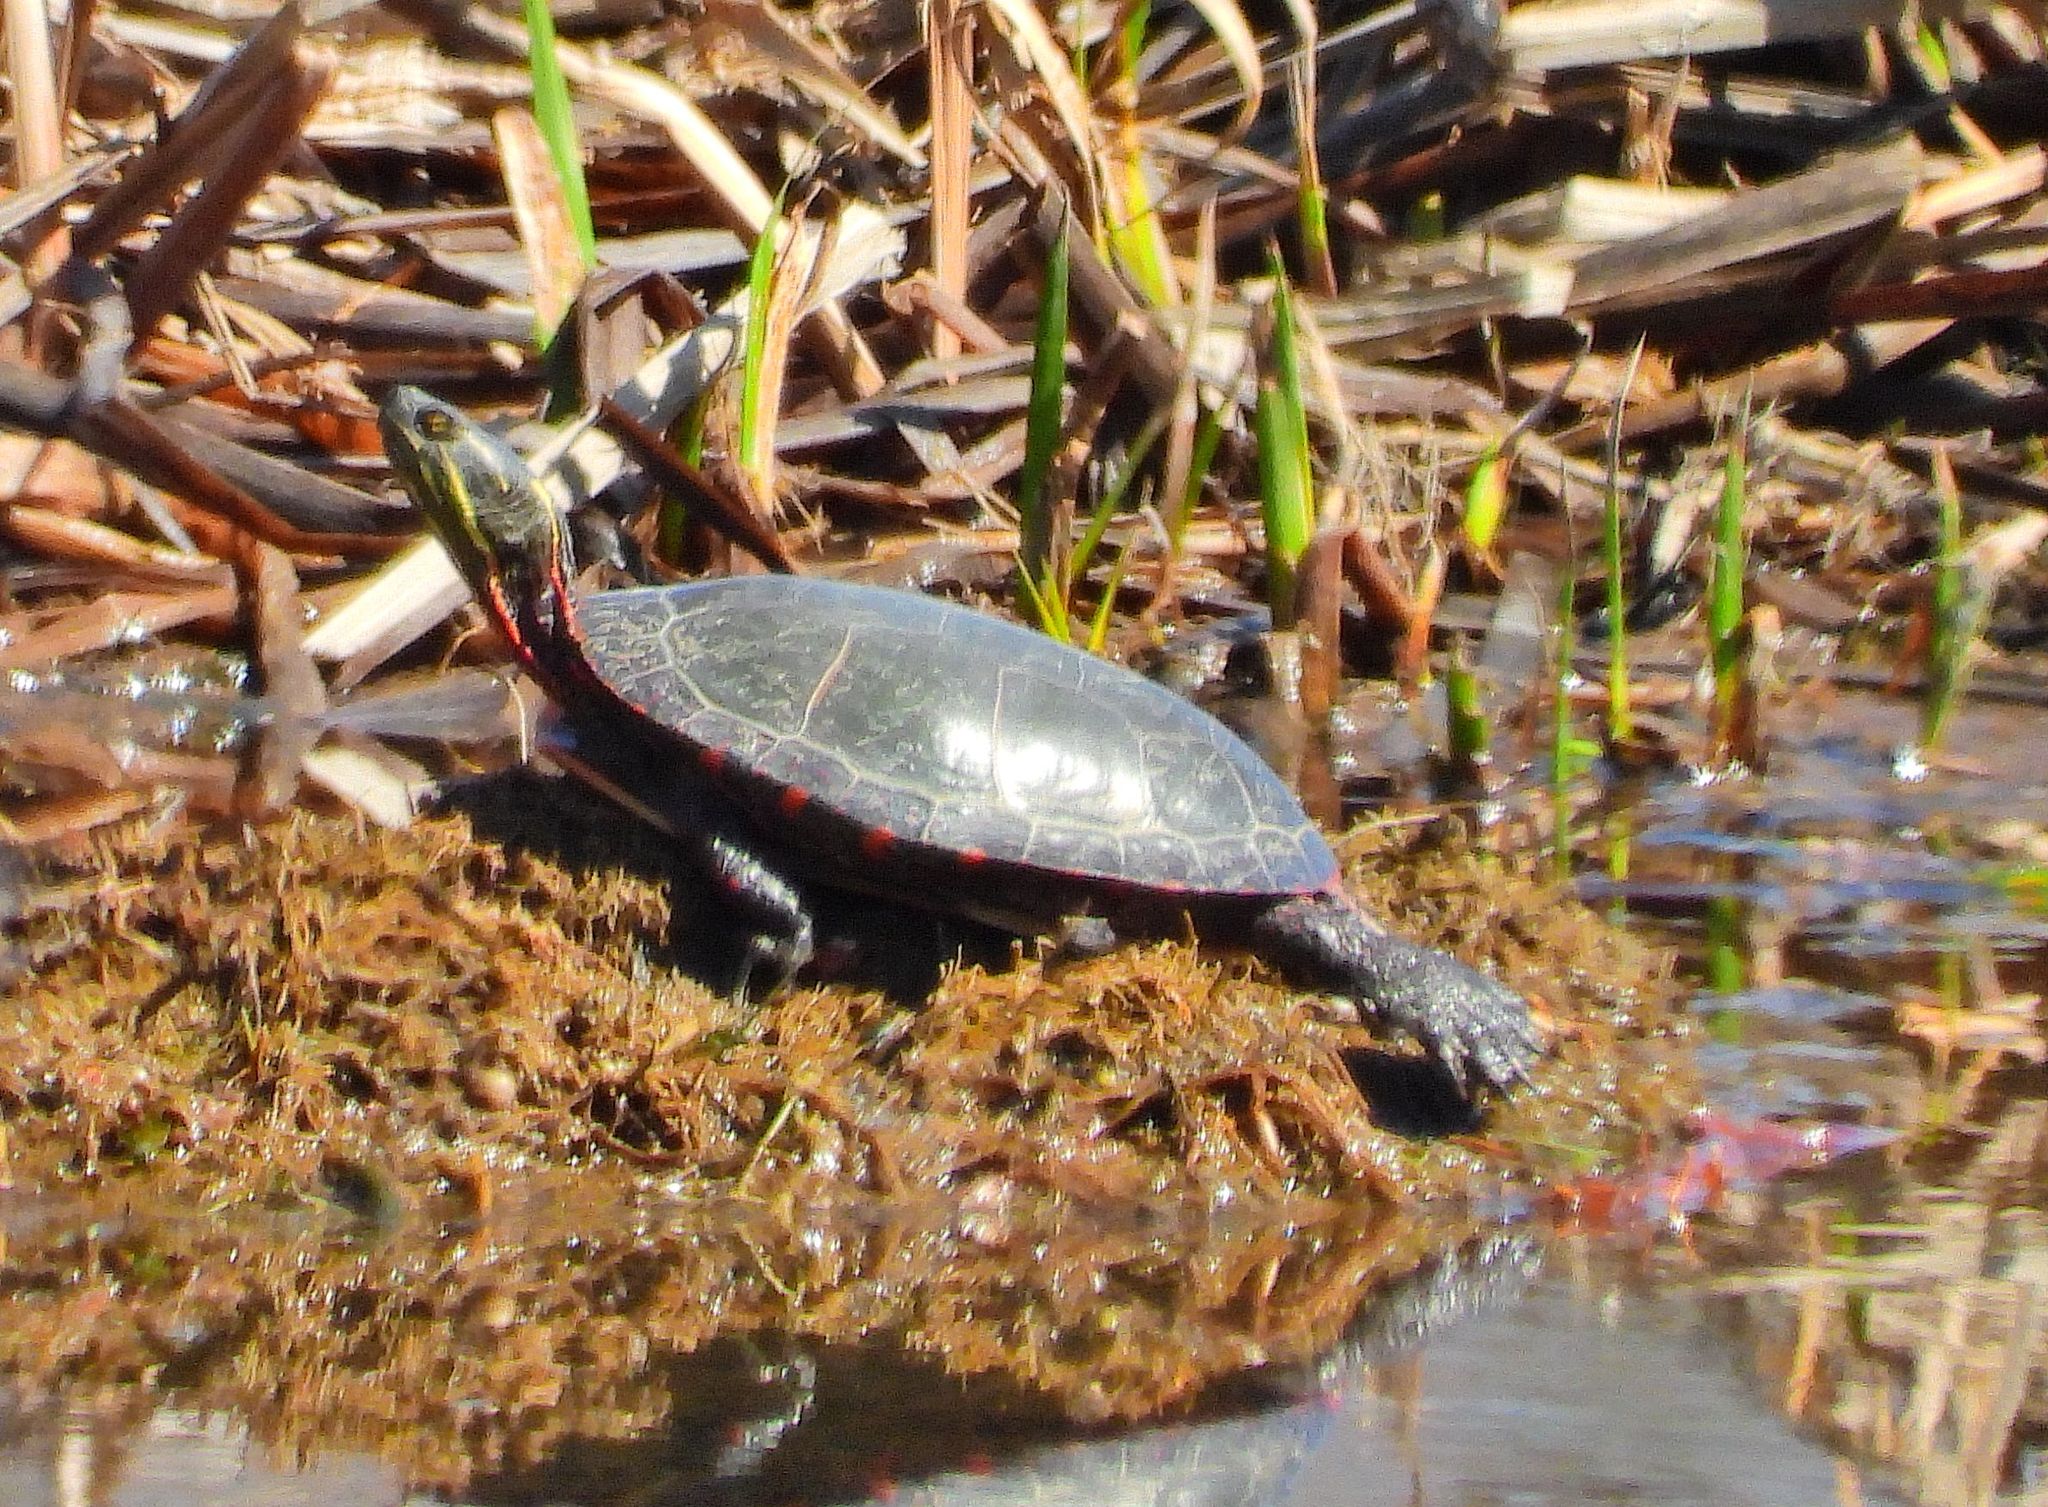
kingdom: Animalia
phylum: Chordata
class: Testudines
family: Emydidae
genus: Chrysemys
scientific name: Chrysemys picta
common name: Painted turtle
